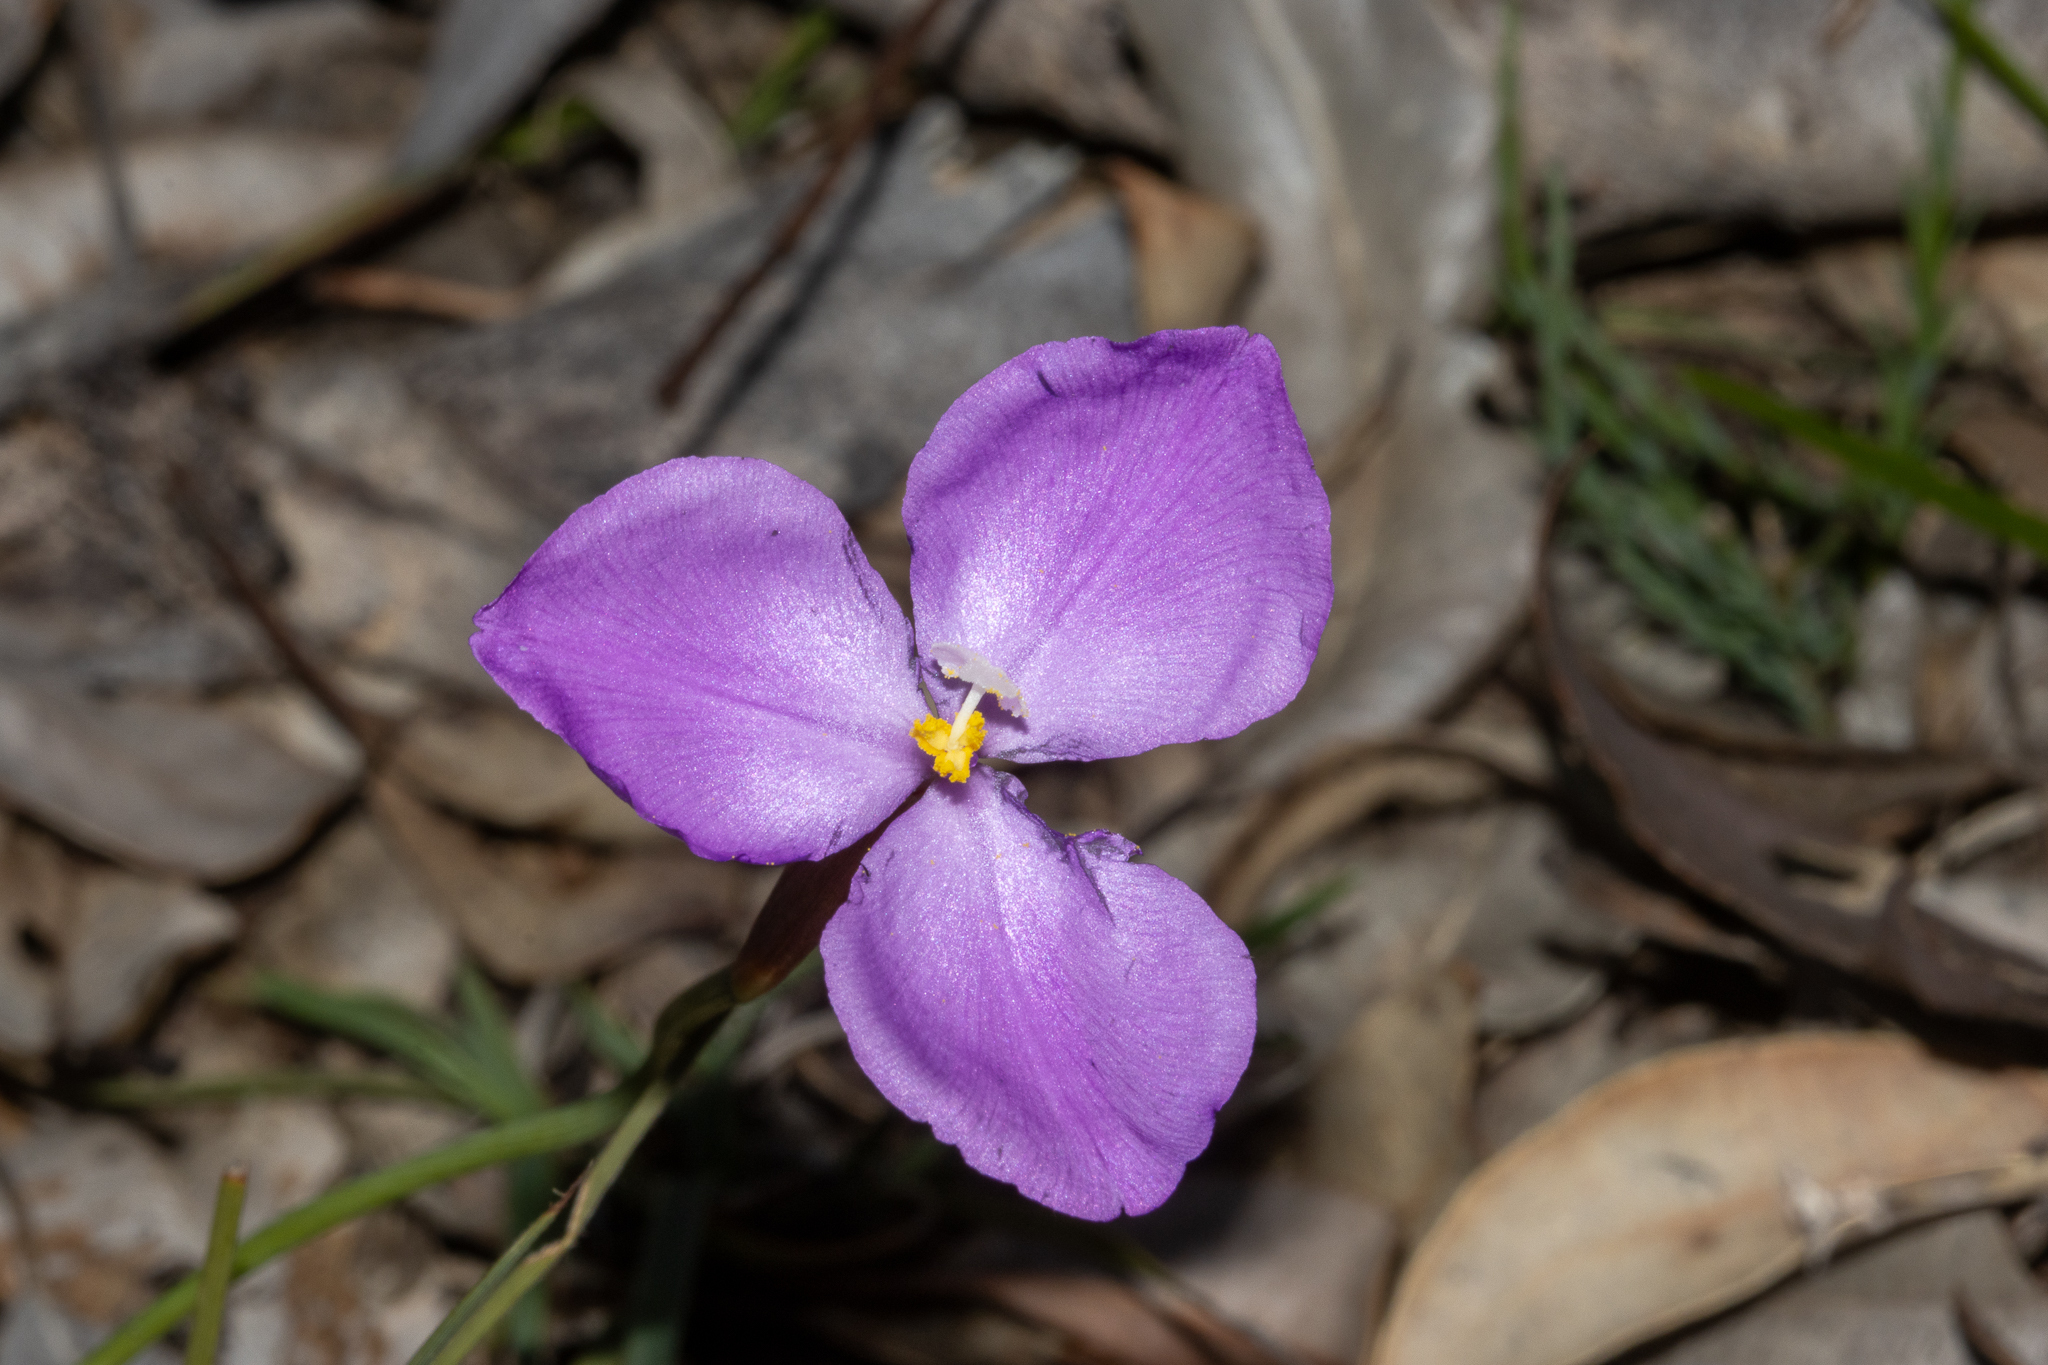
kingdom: Plantae
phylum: Tracheophyta
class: Liliopsida
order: Asparagales
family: Iridaceae
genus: Patersonia
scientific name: Patersonia juncea
